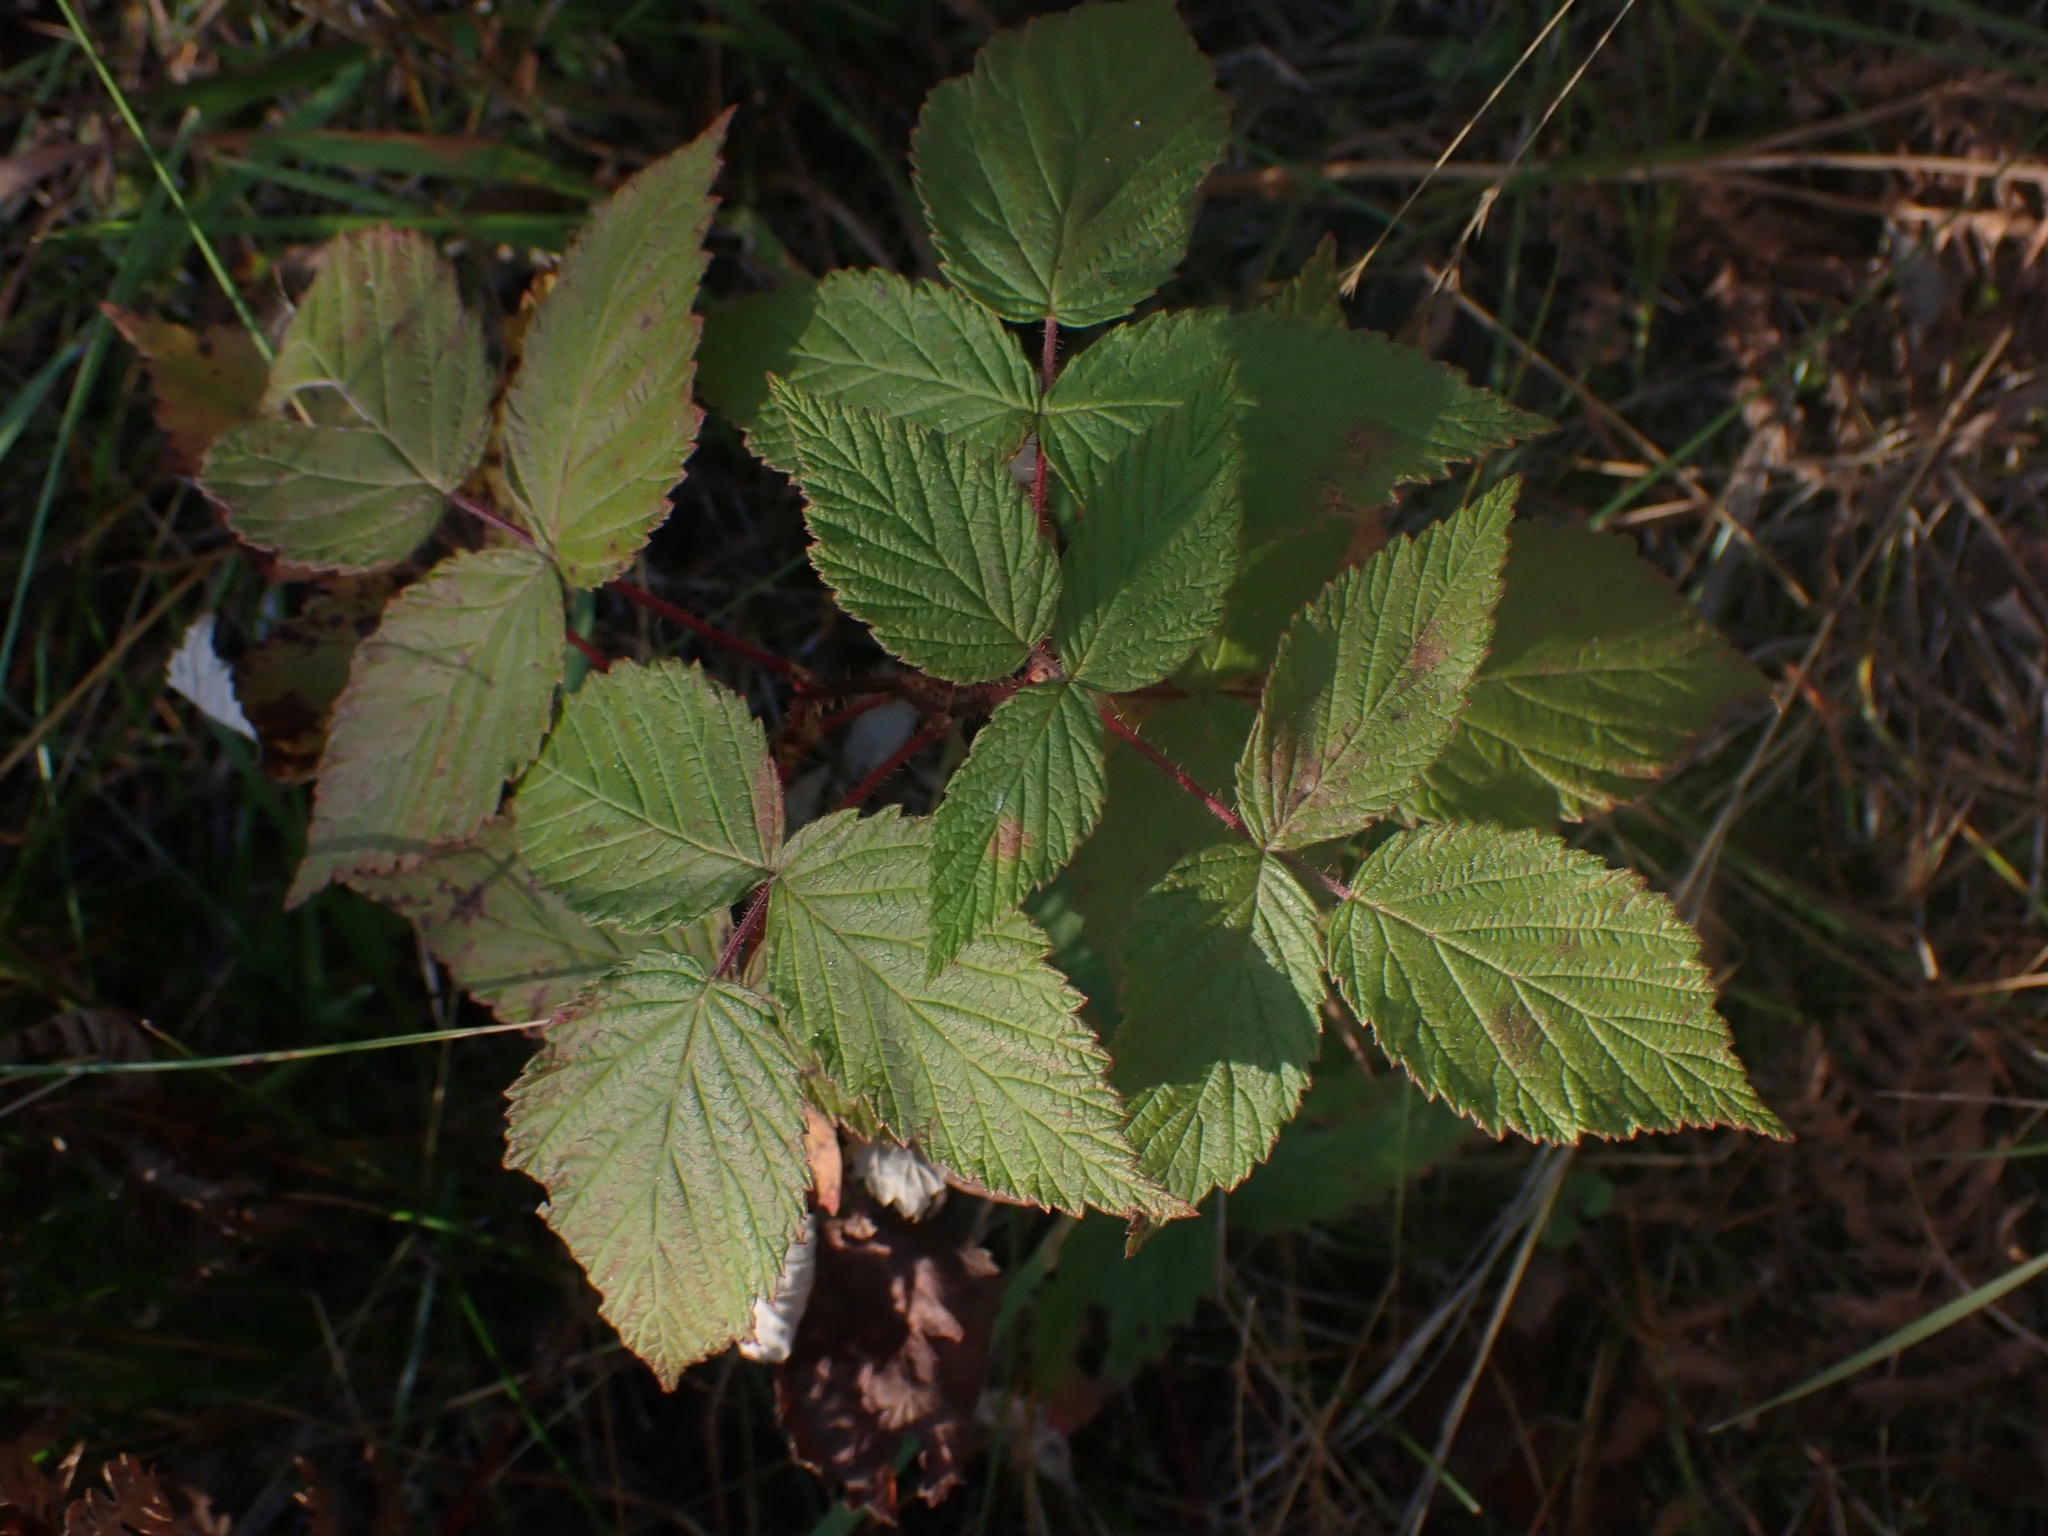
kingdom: Plantae
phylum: Tracheophyta
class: Magnoliopsida
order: Rosales
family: Rosaceae
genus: Rubus
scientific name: Rubus idaeus
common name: Raspberry
